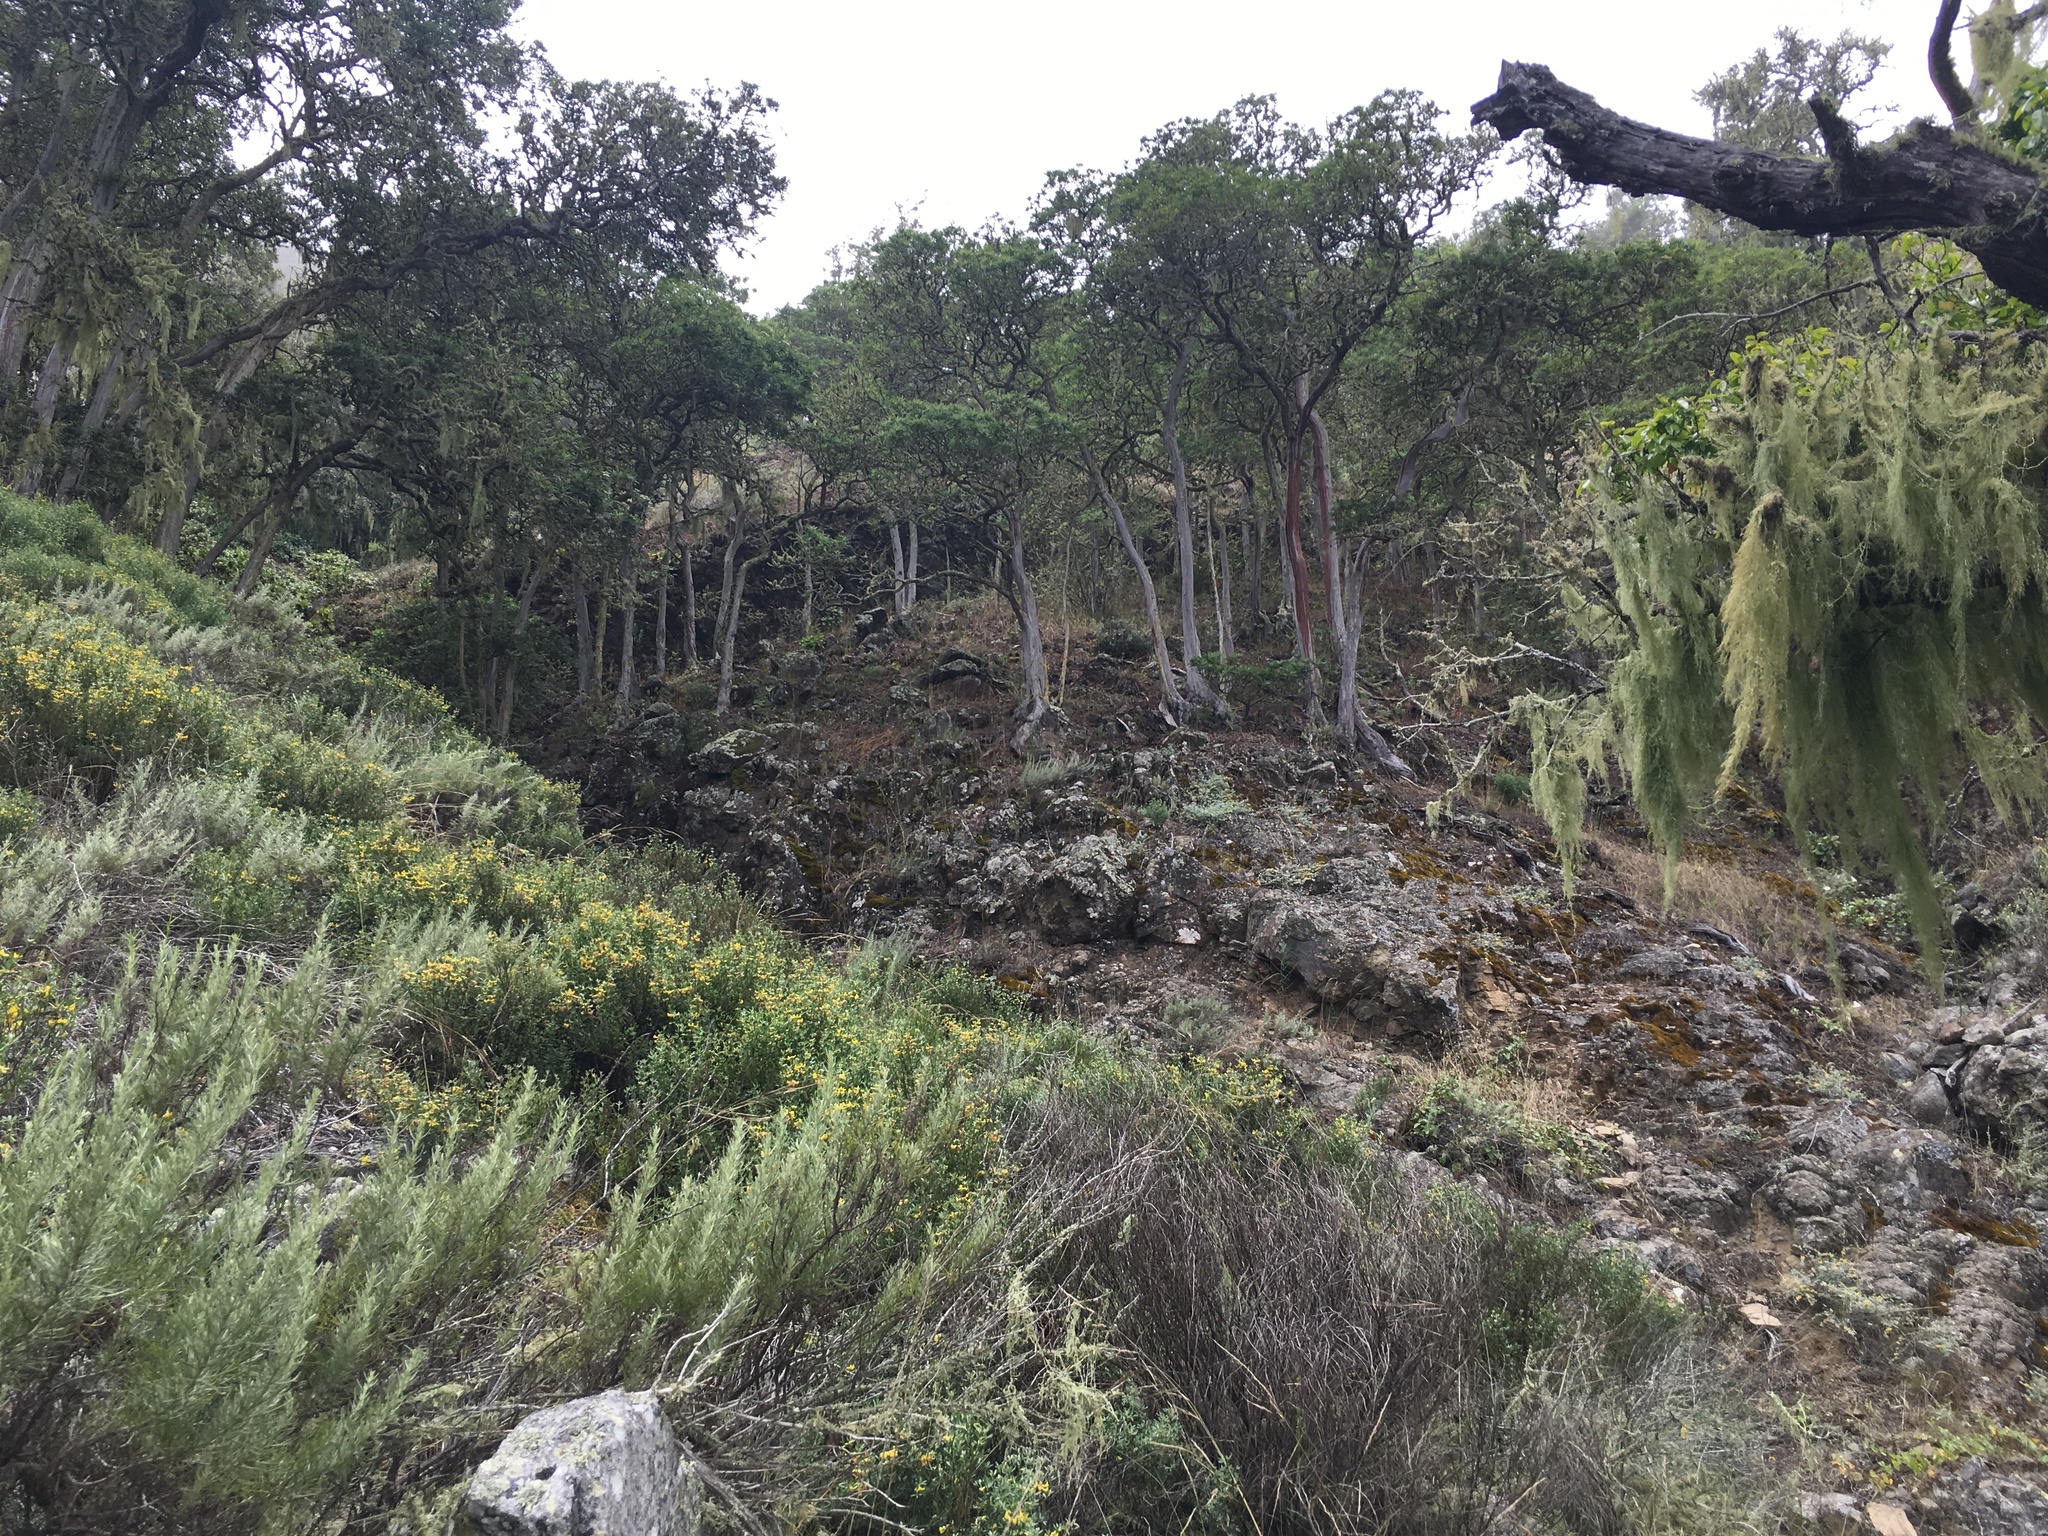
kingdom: Plantae
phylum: Tracheophyta
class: Magnoliopsida
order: Rosales
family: Rosaceae
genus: Lyonothamnus
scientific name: Lyonothamnus floribundus
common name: Catalina ironwood
